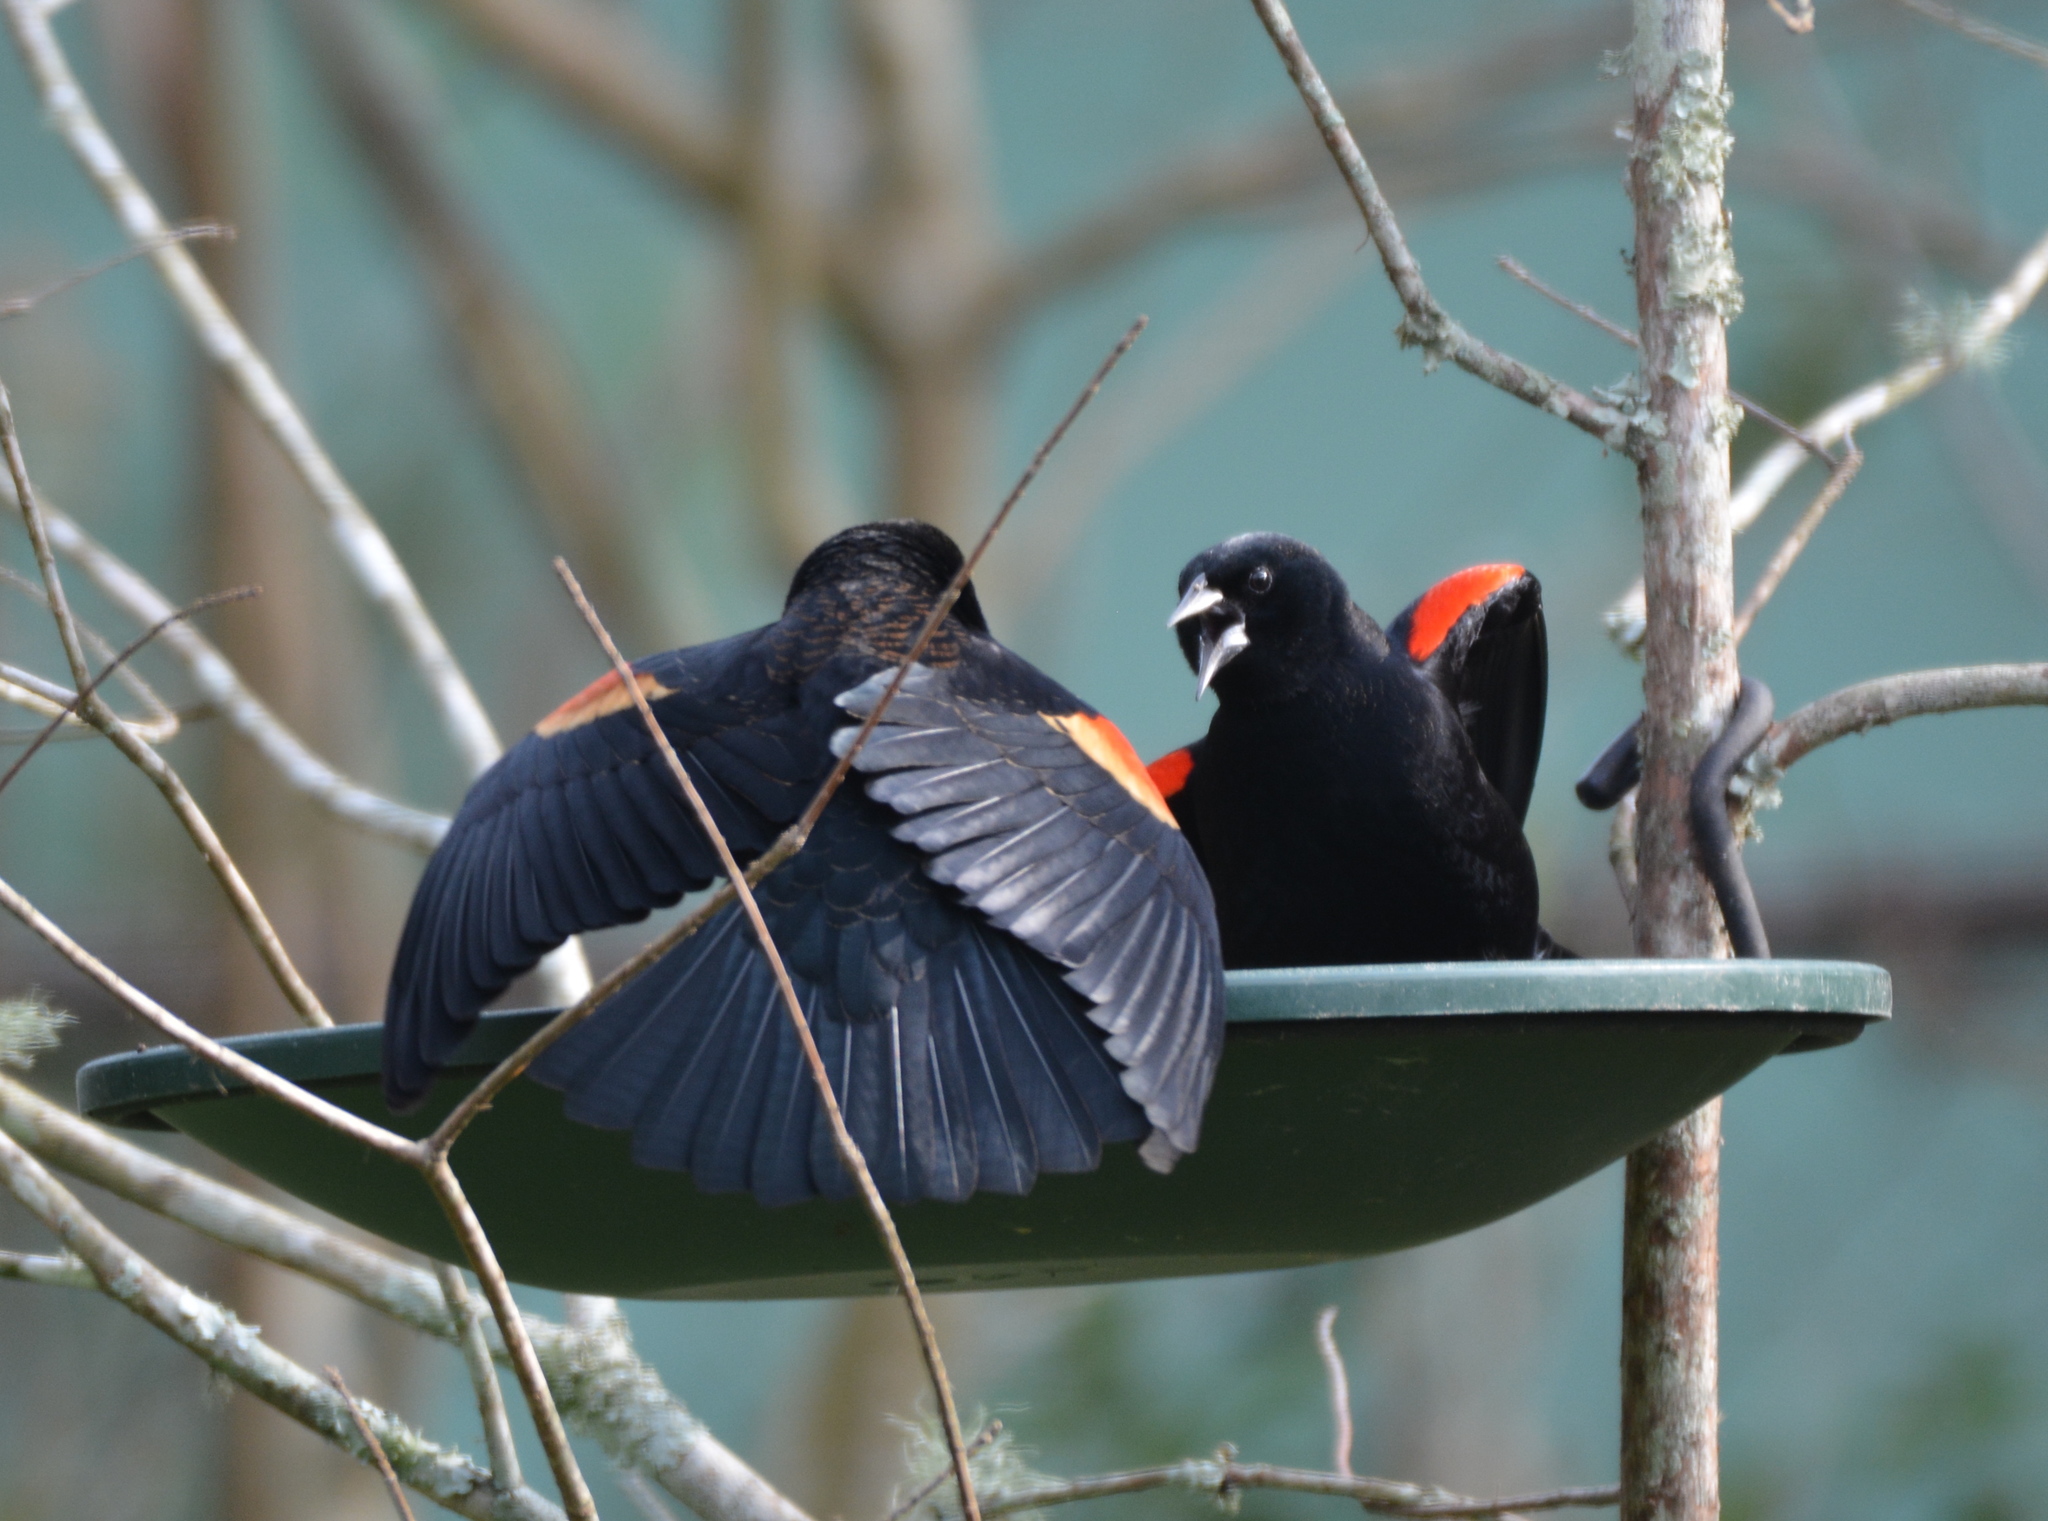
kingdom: Animalia
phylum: Chordata
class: Aves
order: Passeriformes
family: Icteridae
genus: Agelaius
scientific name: Agelaius phoeniceus
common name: Red-winged blackbird
